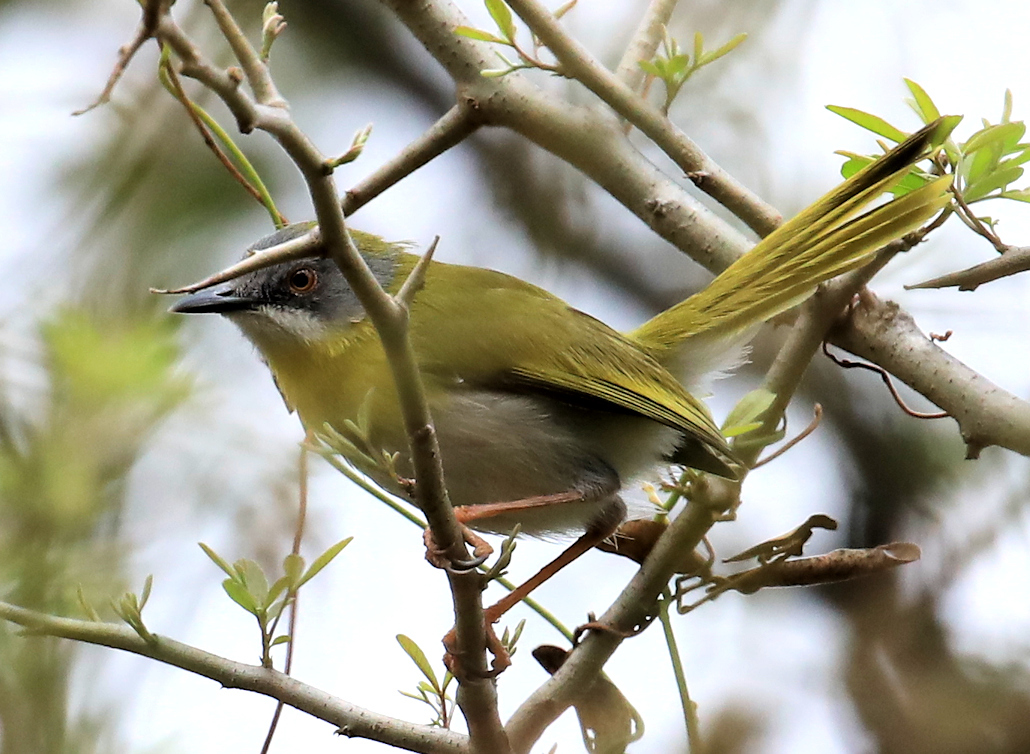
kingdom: Animalia
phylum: Chordata
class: Aves
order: Passeriformes
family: Cisticolidae
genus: Apalis
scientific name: Apalis flavida
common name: Yellow-breasted apalis
